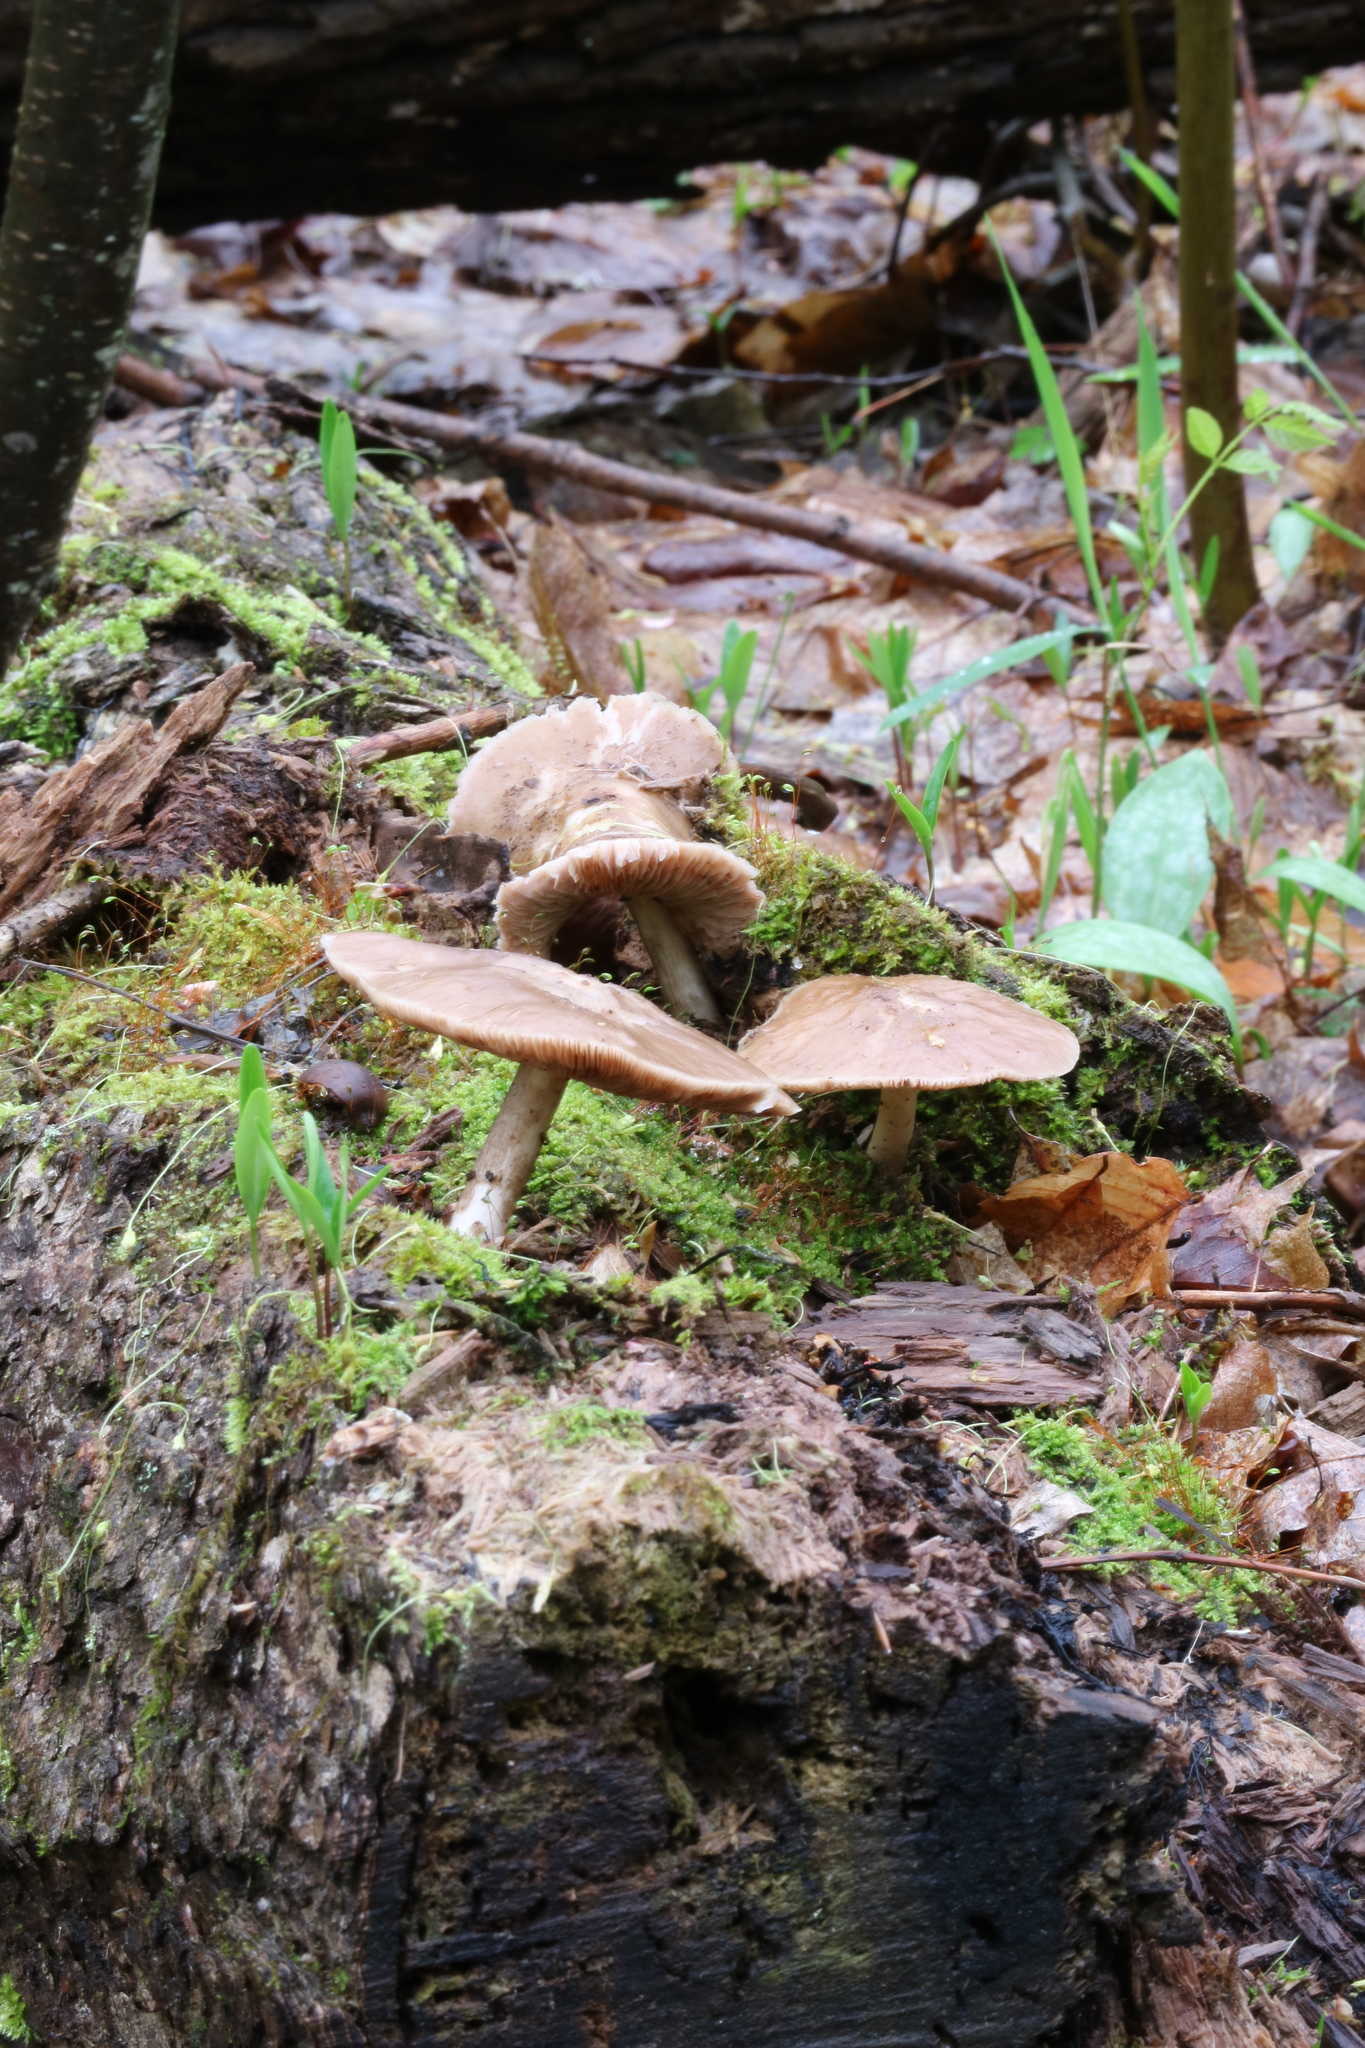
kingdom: Fungi
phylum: Basidiomycota
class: Agaricomycetes
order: Agaricales
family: Pluteaceae
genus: Pluteus
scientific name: Pluteus cervinus
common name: Deer shield
